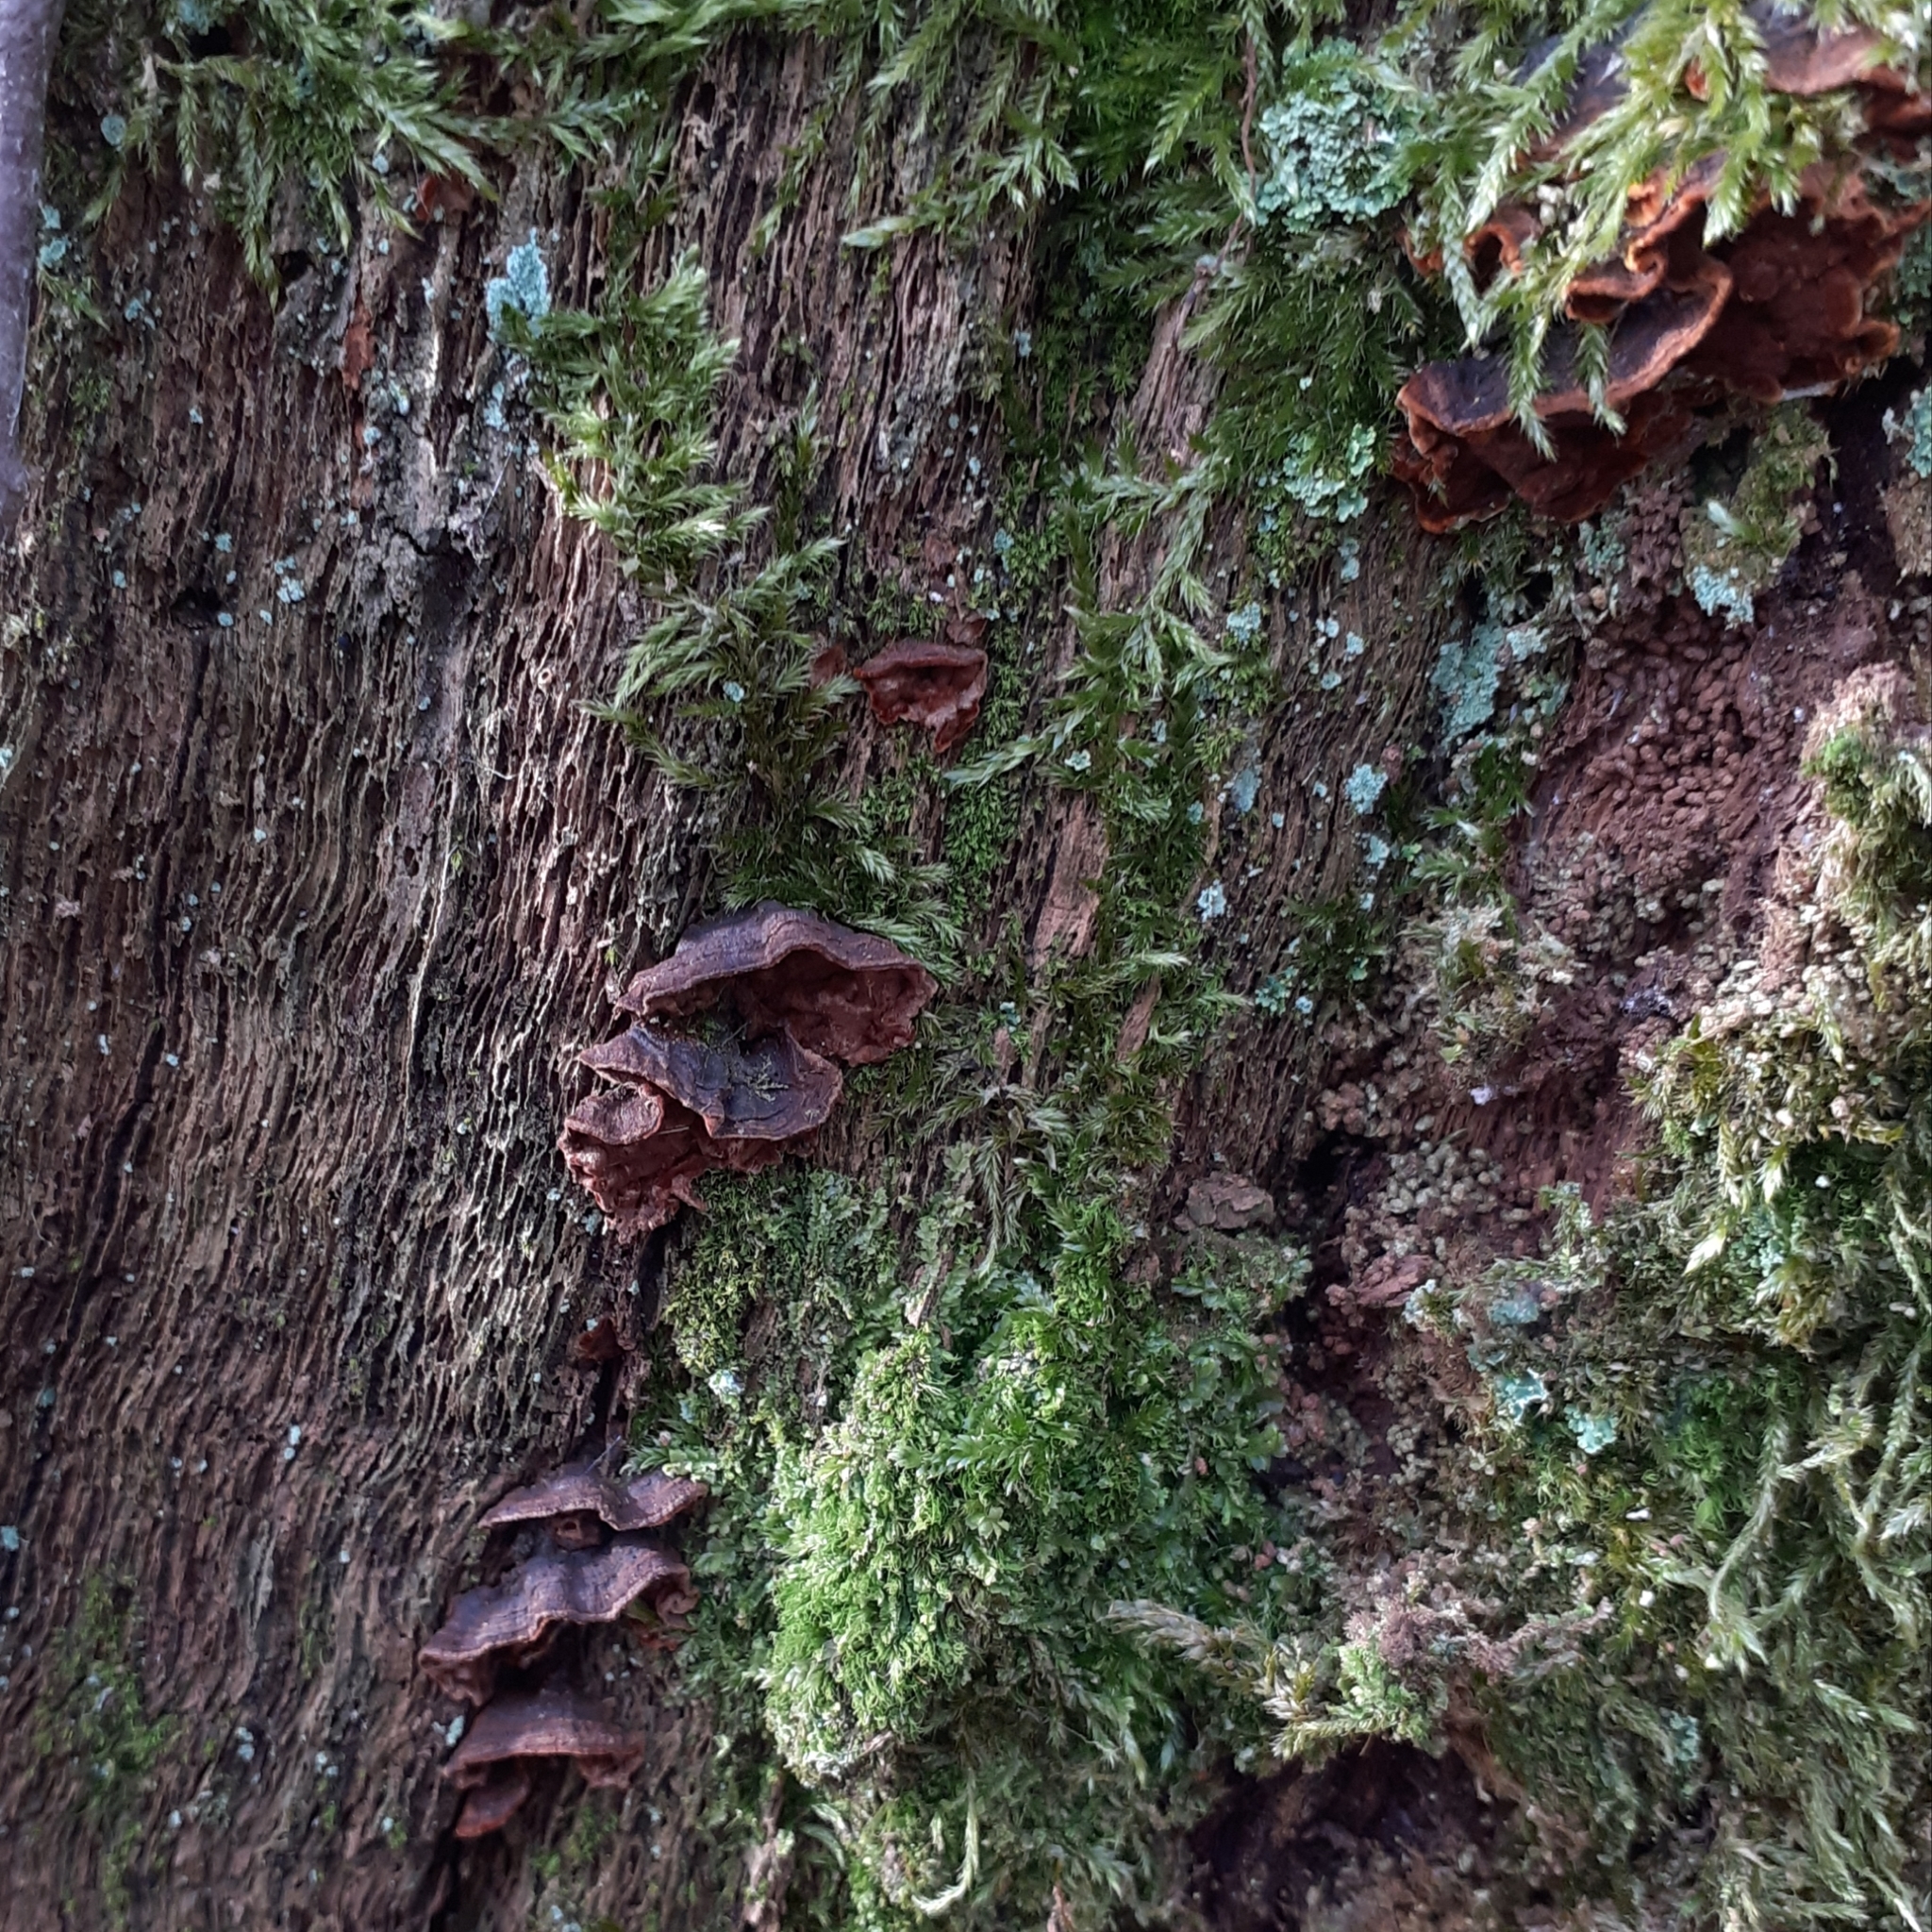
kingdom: Fungi
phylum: Basidiomycota
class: Agaricomycetes
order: Hymenochaetales
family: Hymenochaetaceae
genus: Hymenochaete
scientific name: Hymenochaete rubiginosa
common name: Oak curtain crust
